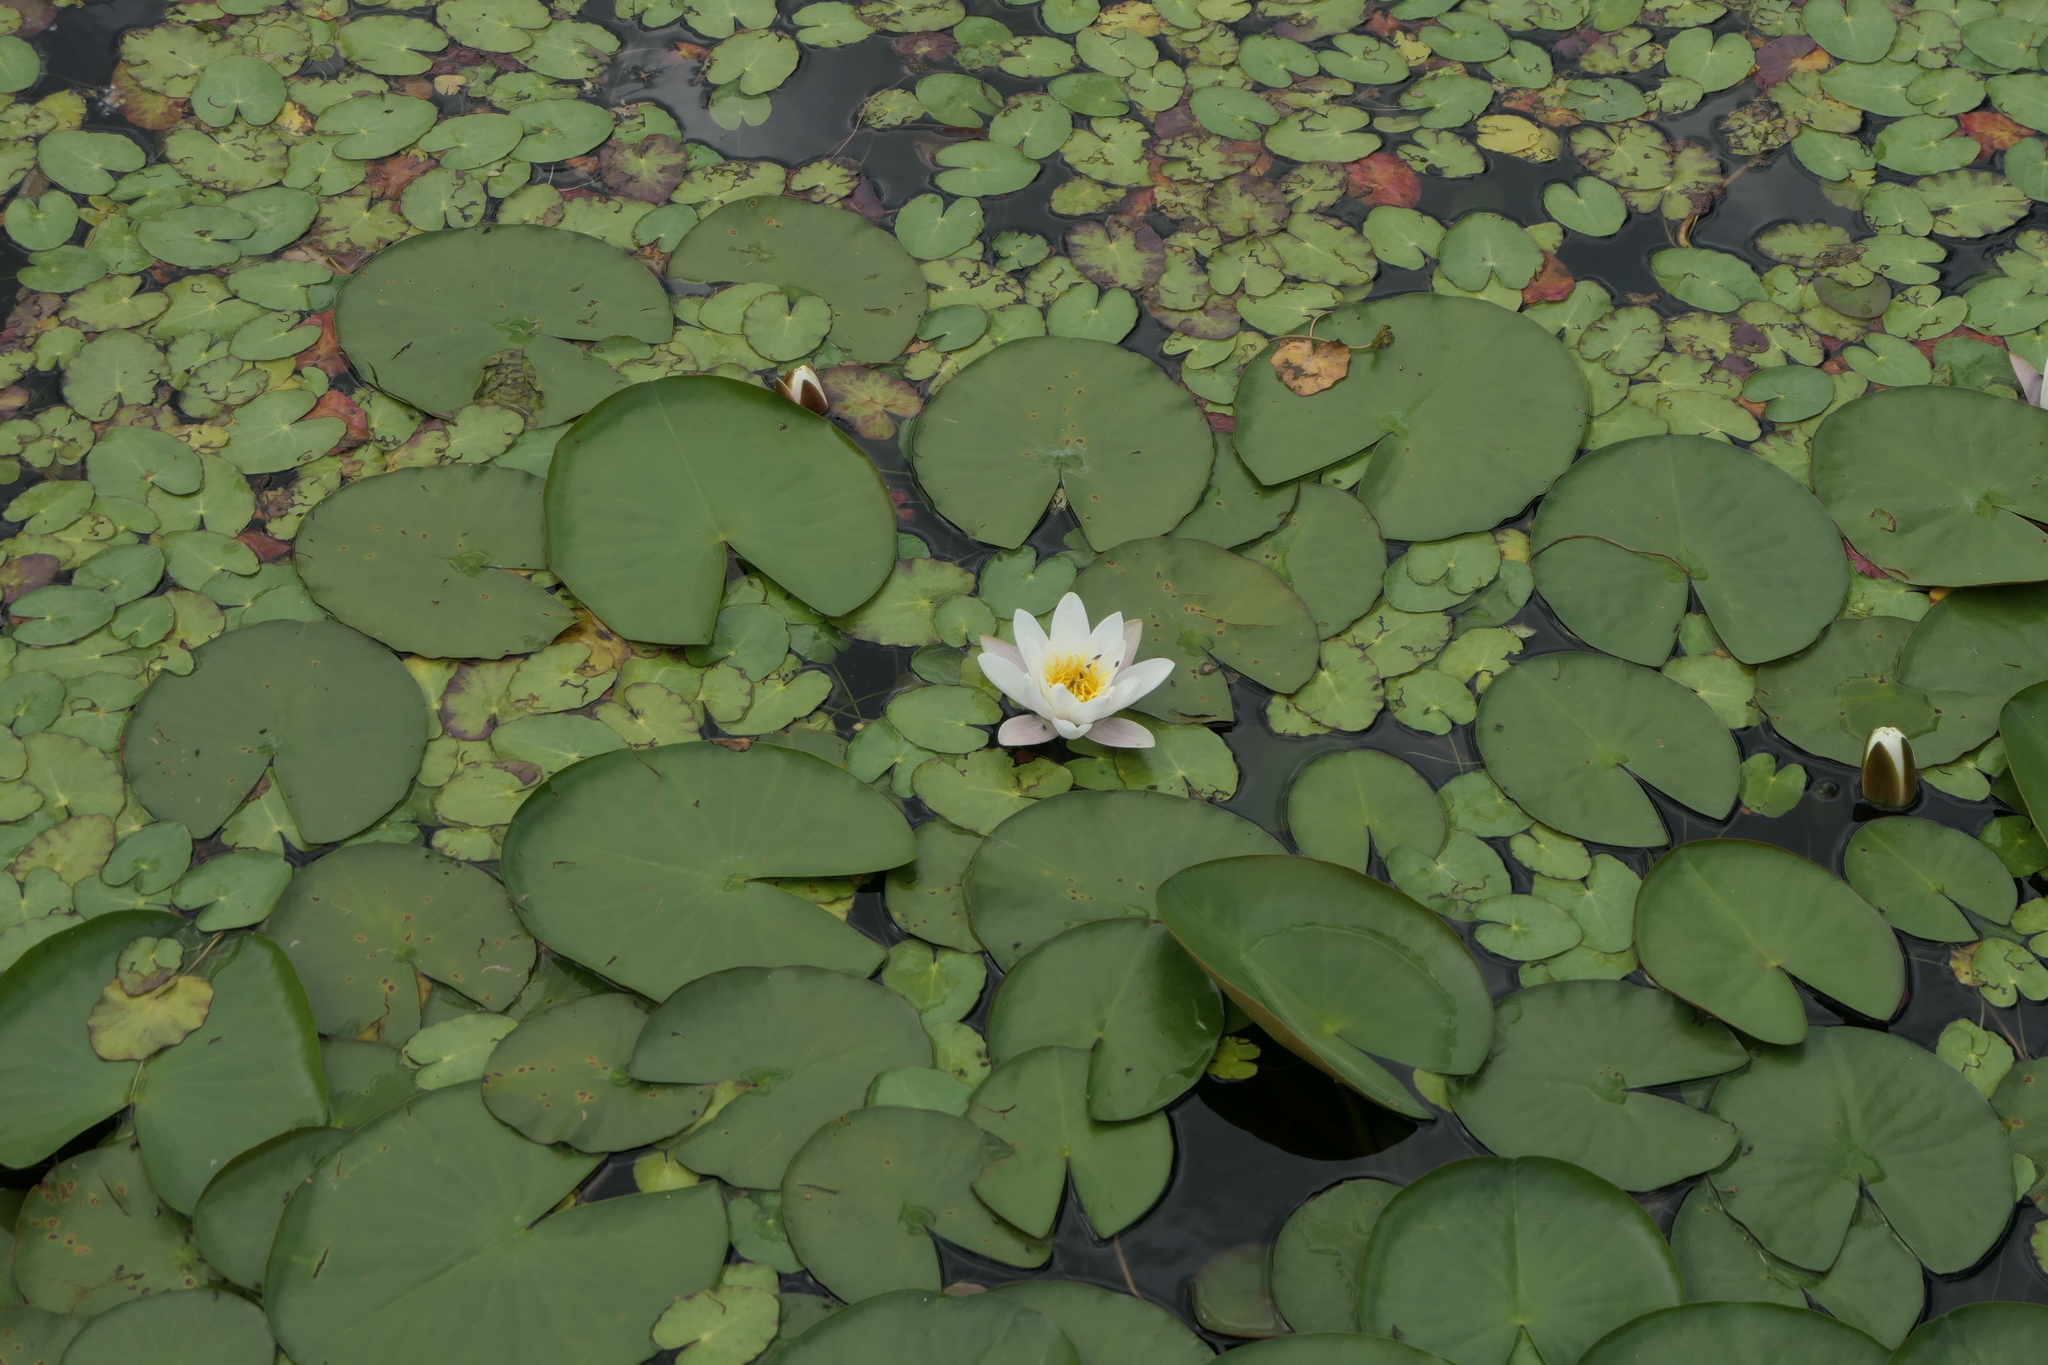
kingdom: Plantae
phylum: Tracheophyta
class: Magnoliopsida
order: Nymphaeales
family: Nymphaeaceae
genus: Nymphaea
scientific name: Nymphaea alba
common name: White water-lily
